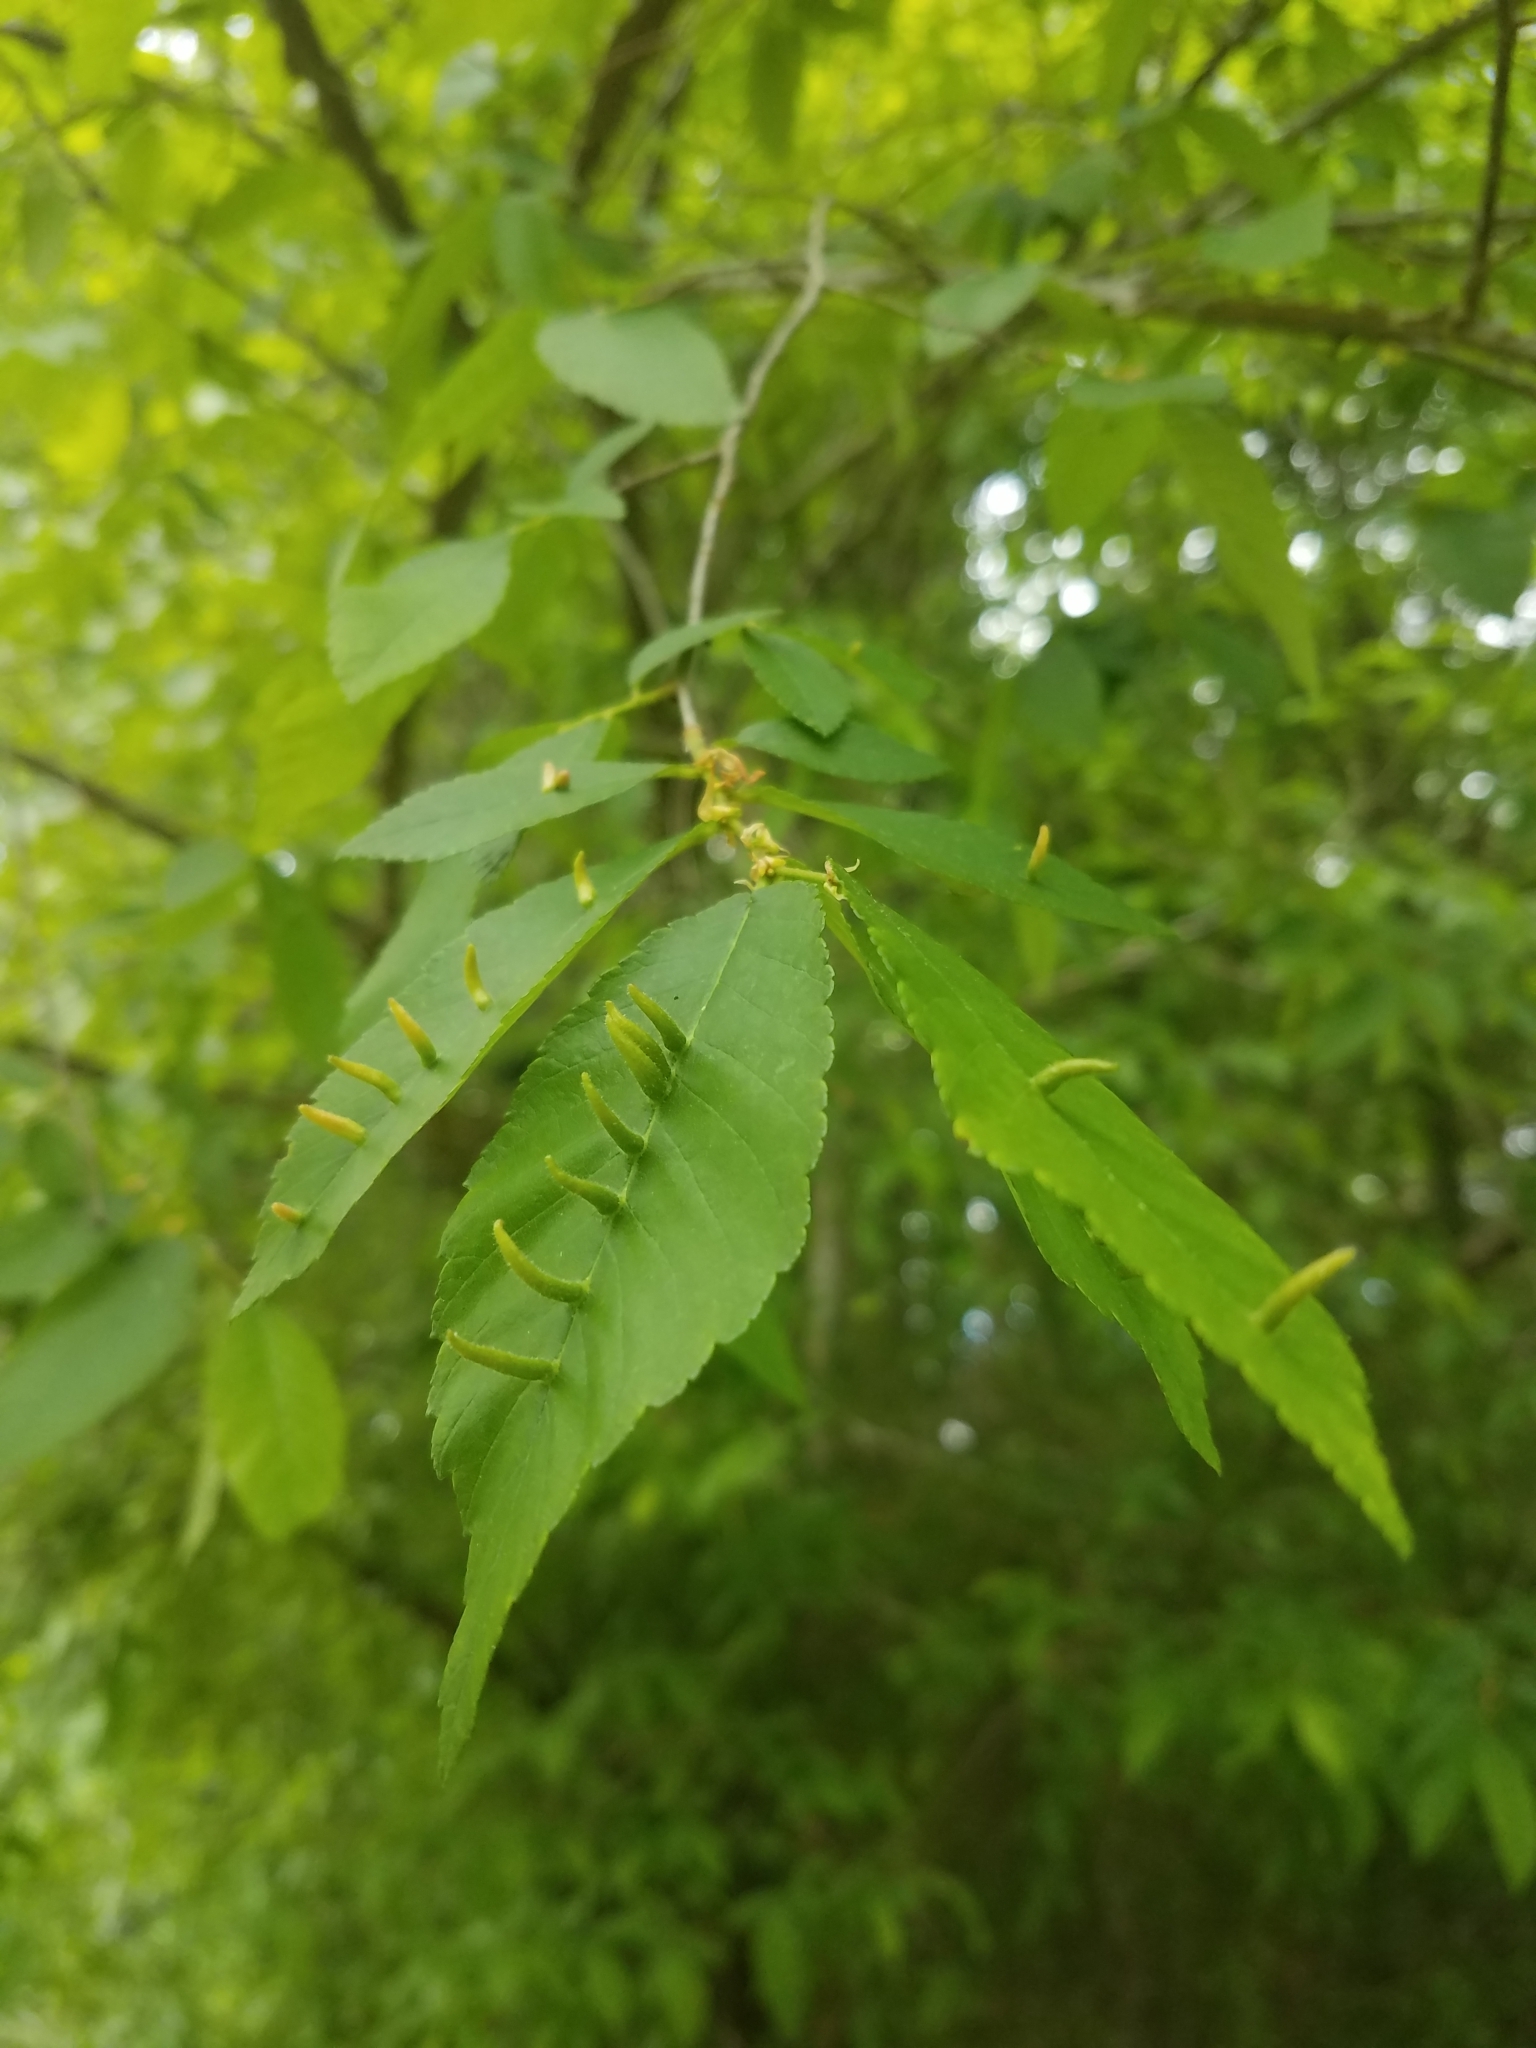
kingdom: Animalia
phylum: Arthropoda
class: Arachnida
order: Trombidiformes
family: Eriophyidae
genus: Aceria
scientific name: Aceria
